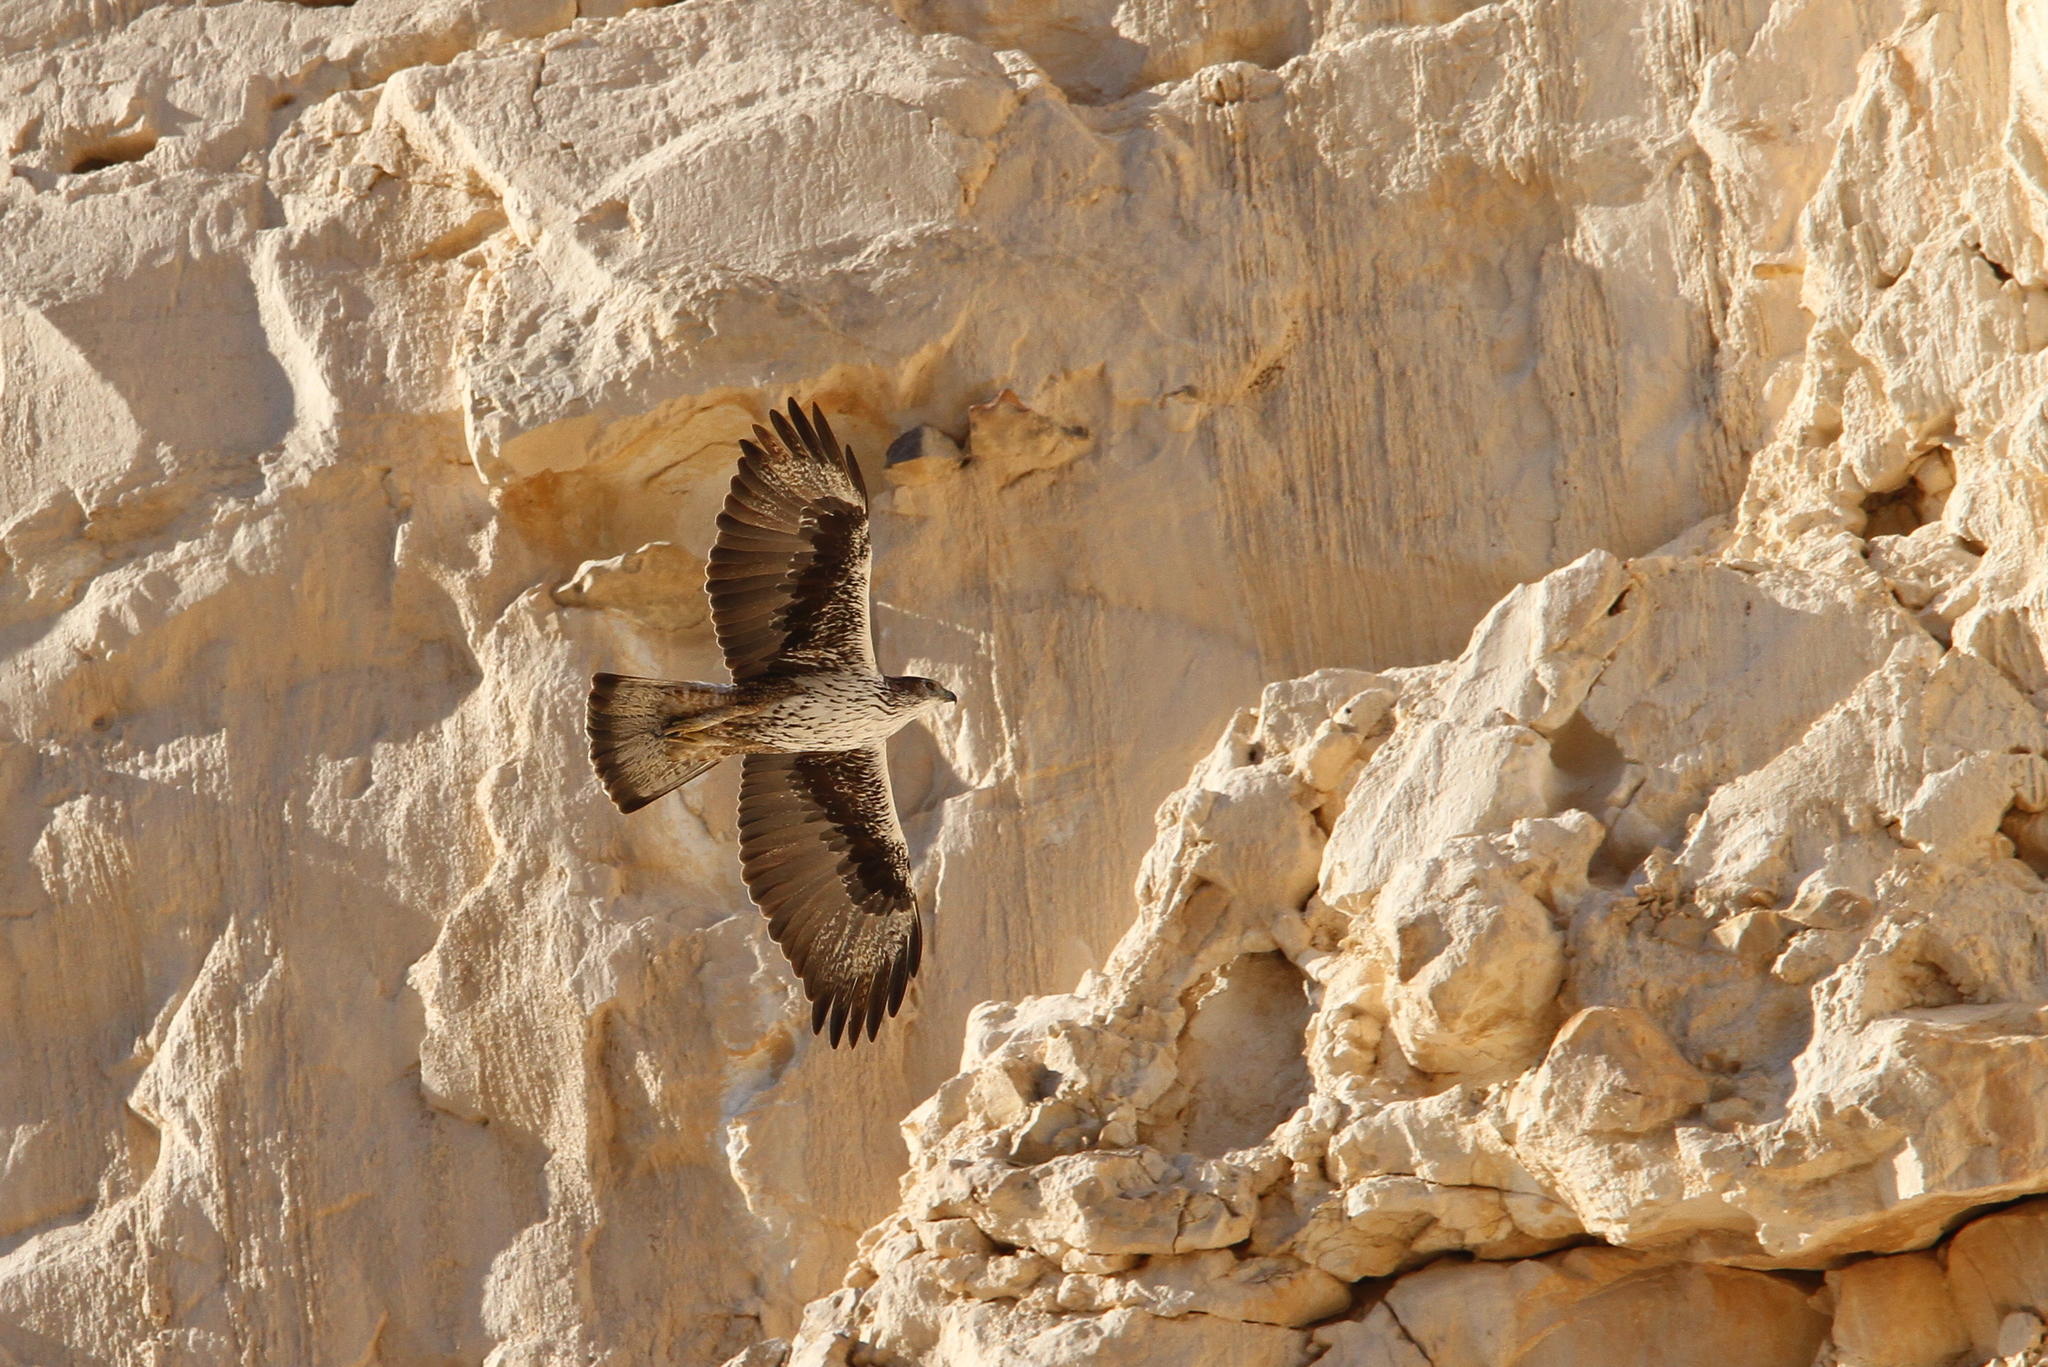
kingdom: Animalia
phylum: Chordata
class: Aves
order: Accipitriformes
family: Accipitridae
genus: Aquila
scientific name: Aquila fasciata
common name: Bonelli's eagle
